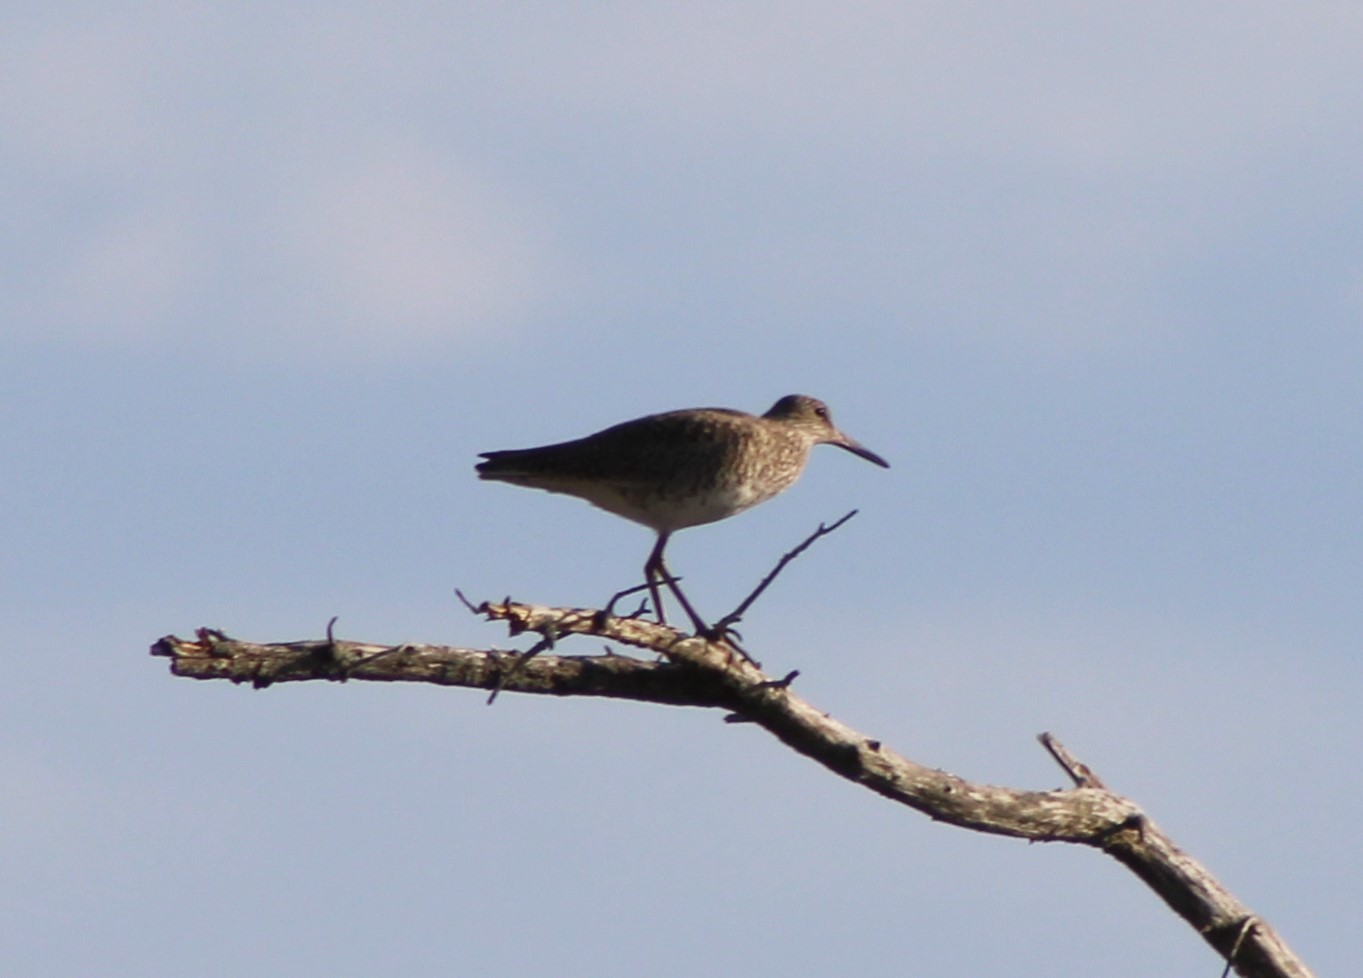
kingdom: Animalia
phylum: Chordata
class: Aves
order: Charadriiformes
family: Scolopacidae
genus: Tringa
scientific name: Tringa semipalmata
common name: Willet
